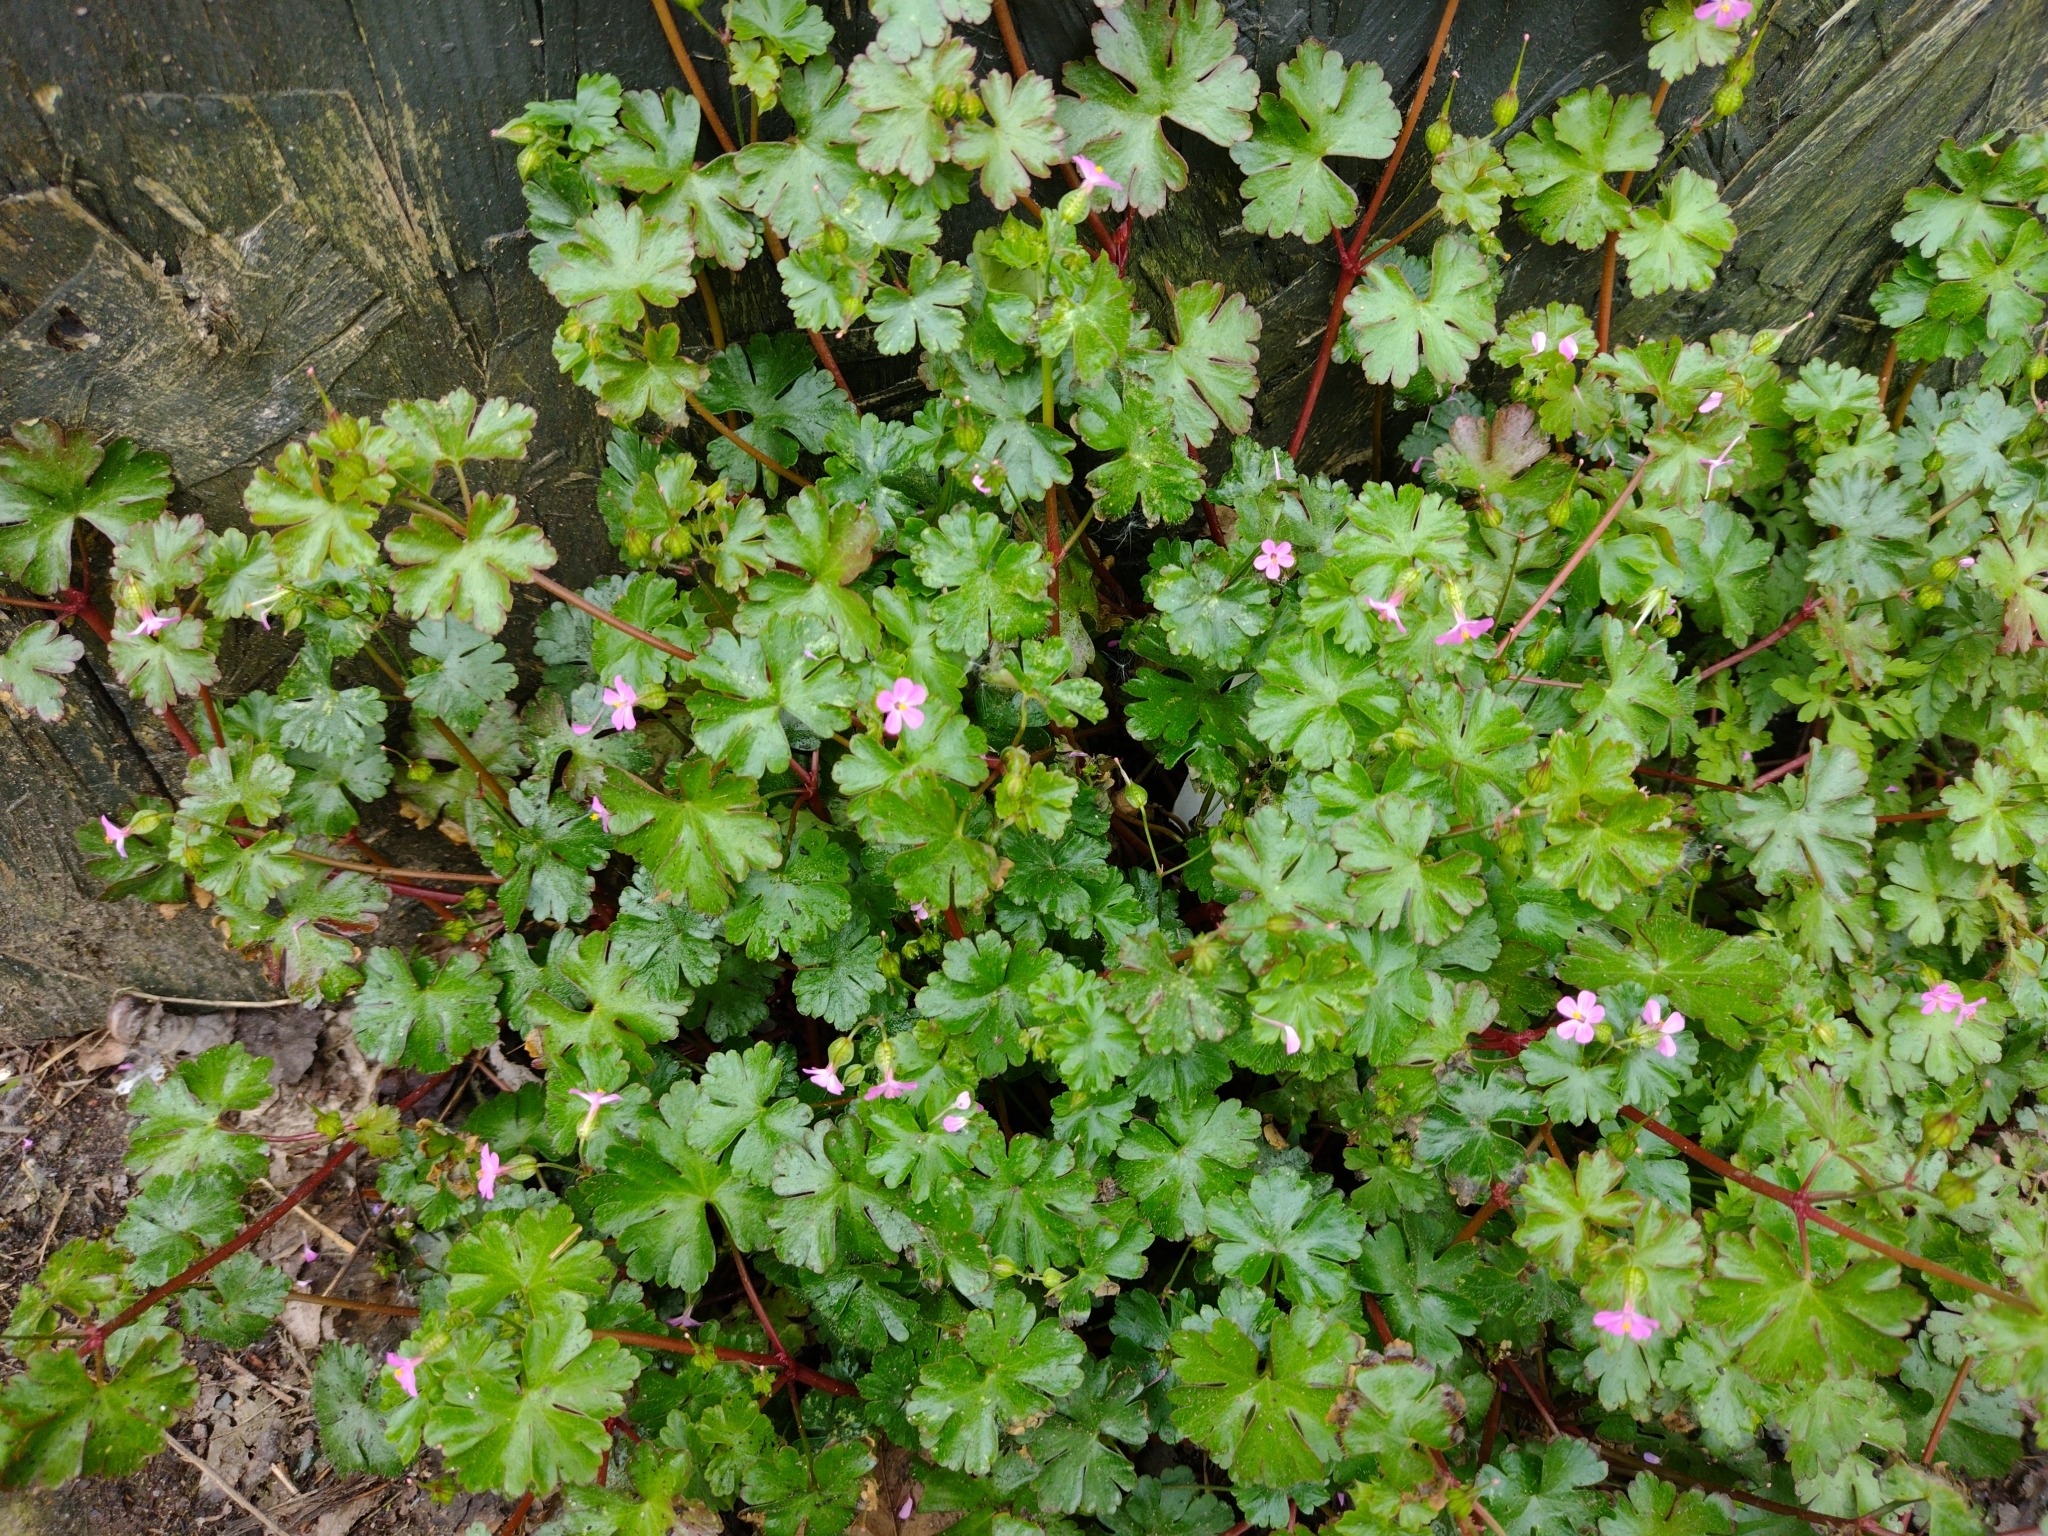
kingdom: Plantae
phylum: Tracheophyta
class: Magnoliopsida
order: Geraniales
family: Geraniaceae
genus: Geranium
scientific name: Geranium lucidum
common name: Shining crane's-bill
